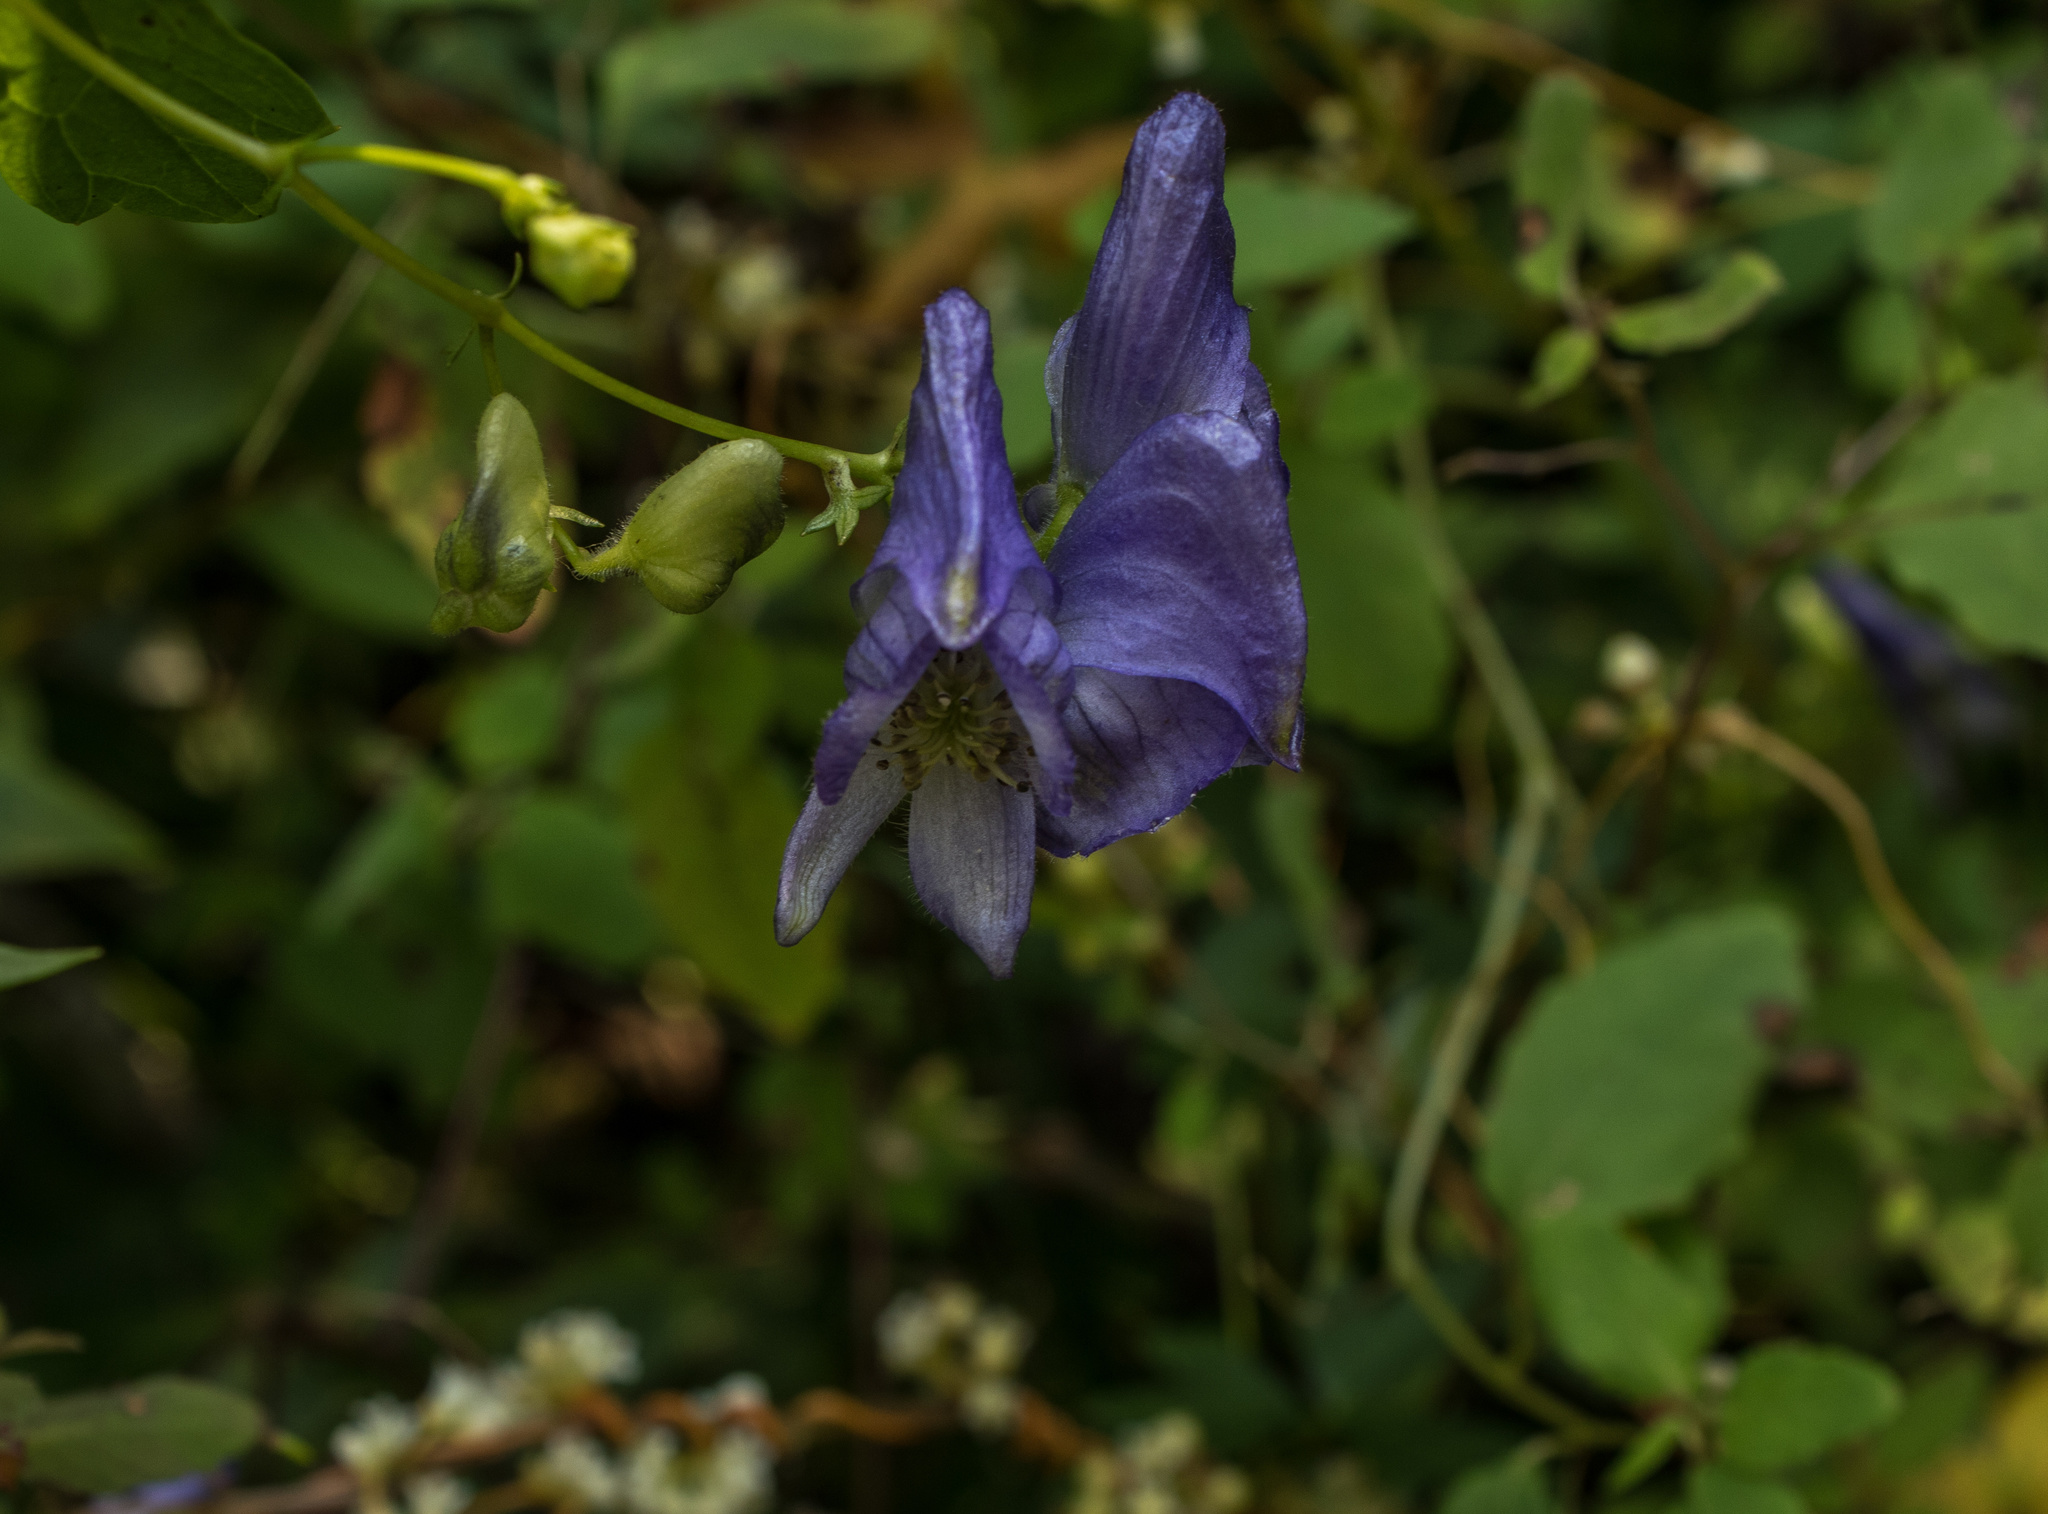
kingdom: Plantae
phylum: Tracheophyta
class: Magnoliopsida
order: Ranunculales
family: Ranunculaceae
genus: Aconitum
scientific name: Aconitum uncinatum
